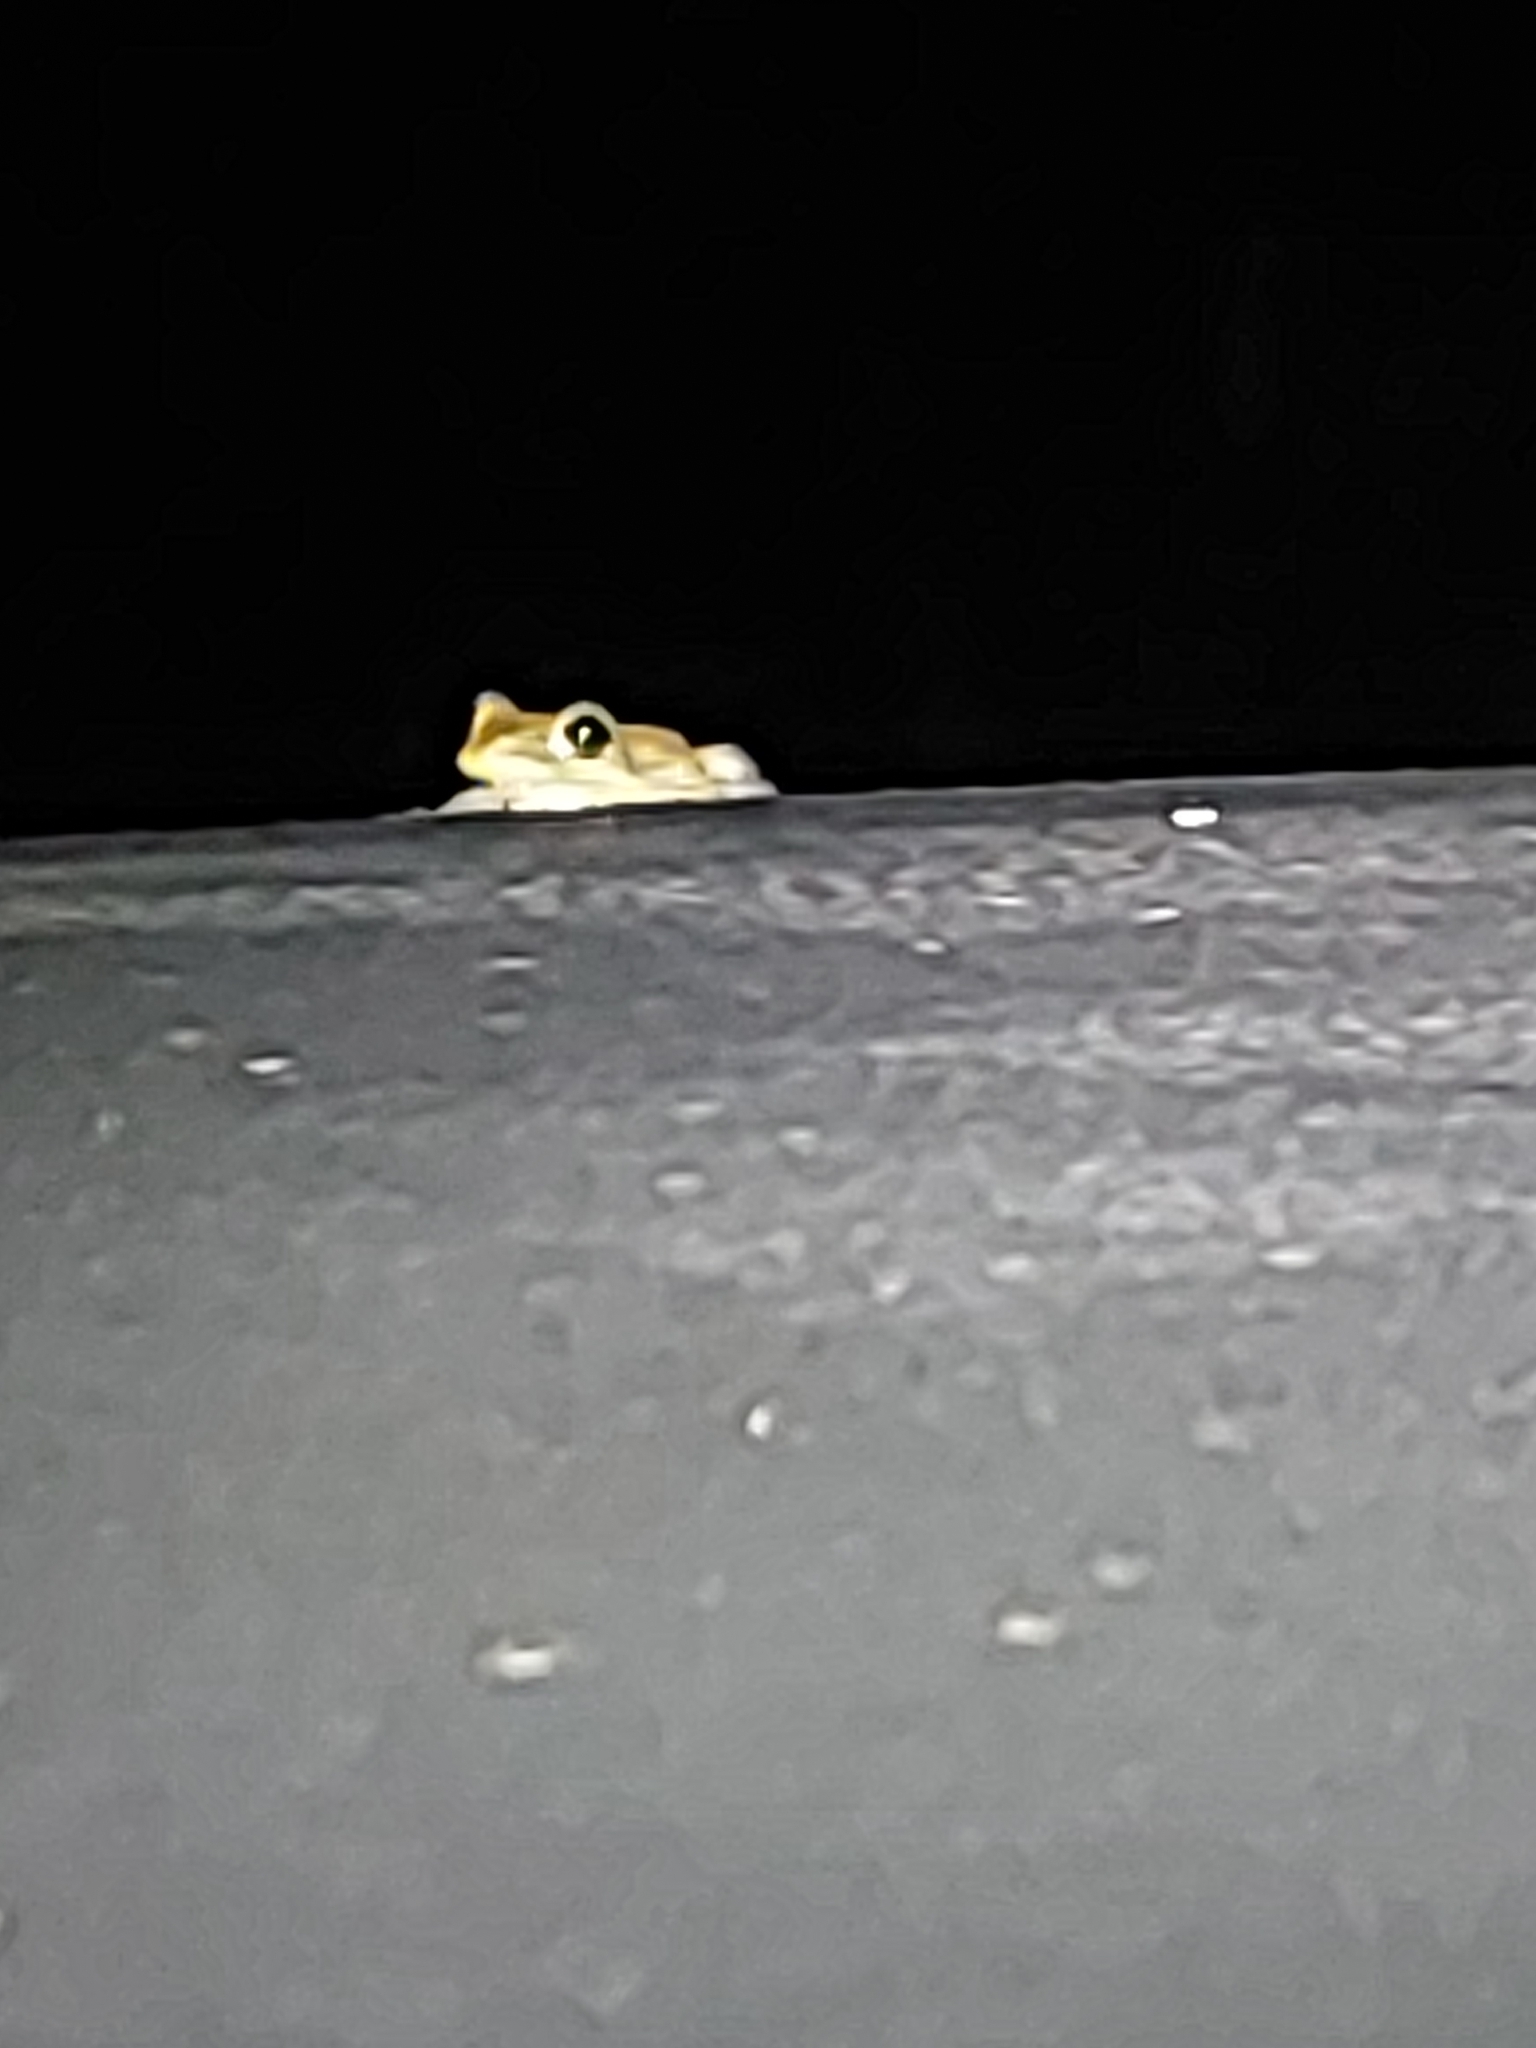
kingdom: Animalia
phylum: Chordata
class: Amphibia
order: Anura
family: Hylidae
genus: Osteopilus
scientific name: Osteopilus septentrionalis
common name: Cuban treefrog
